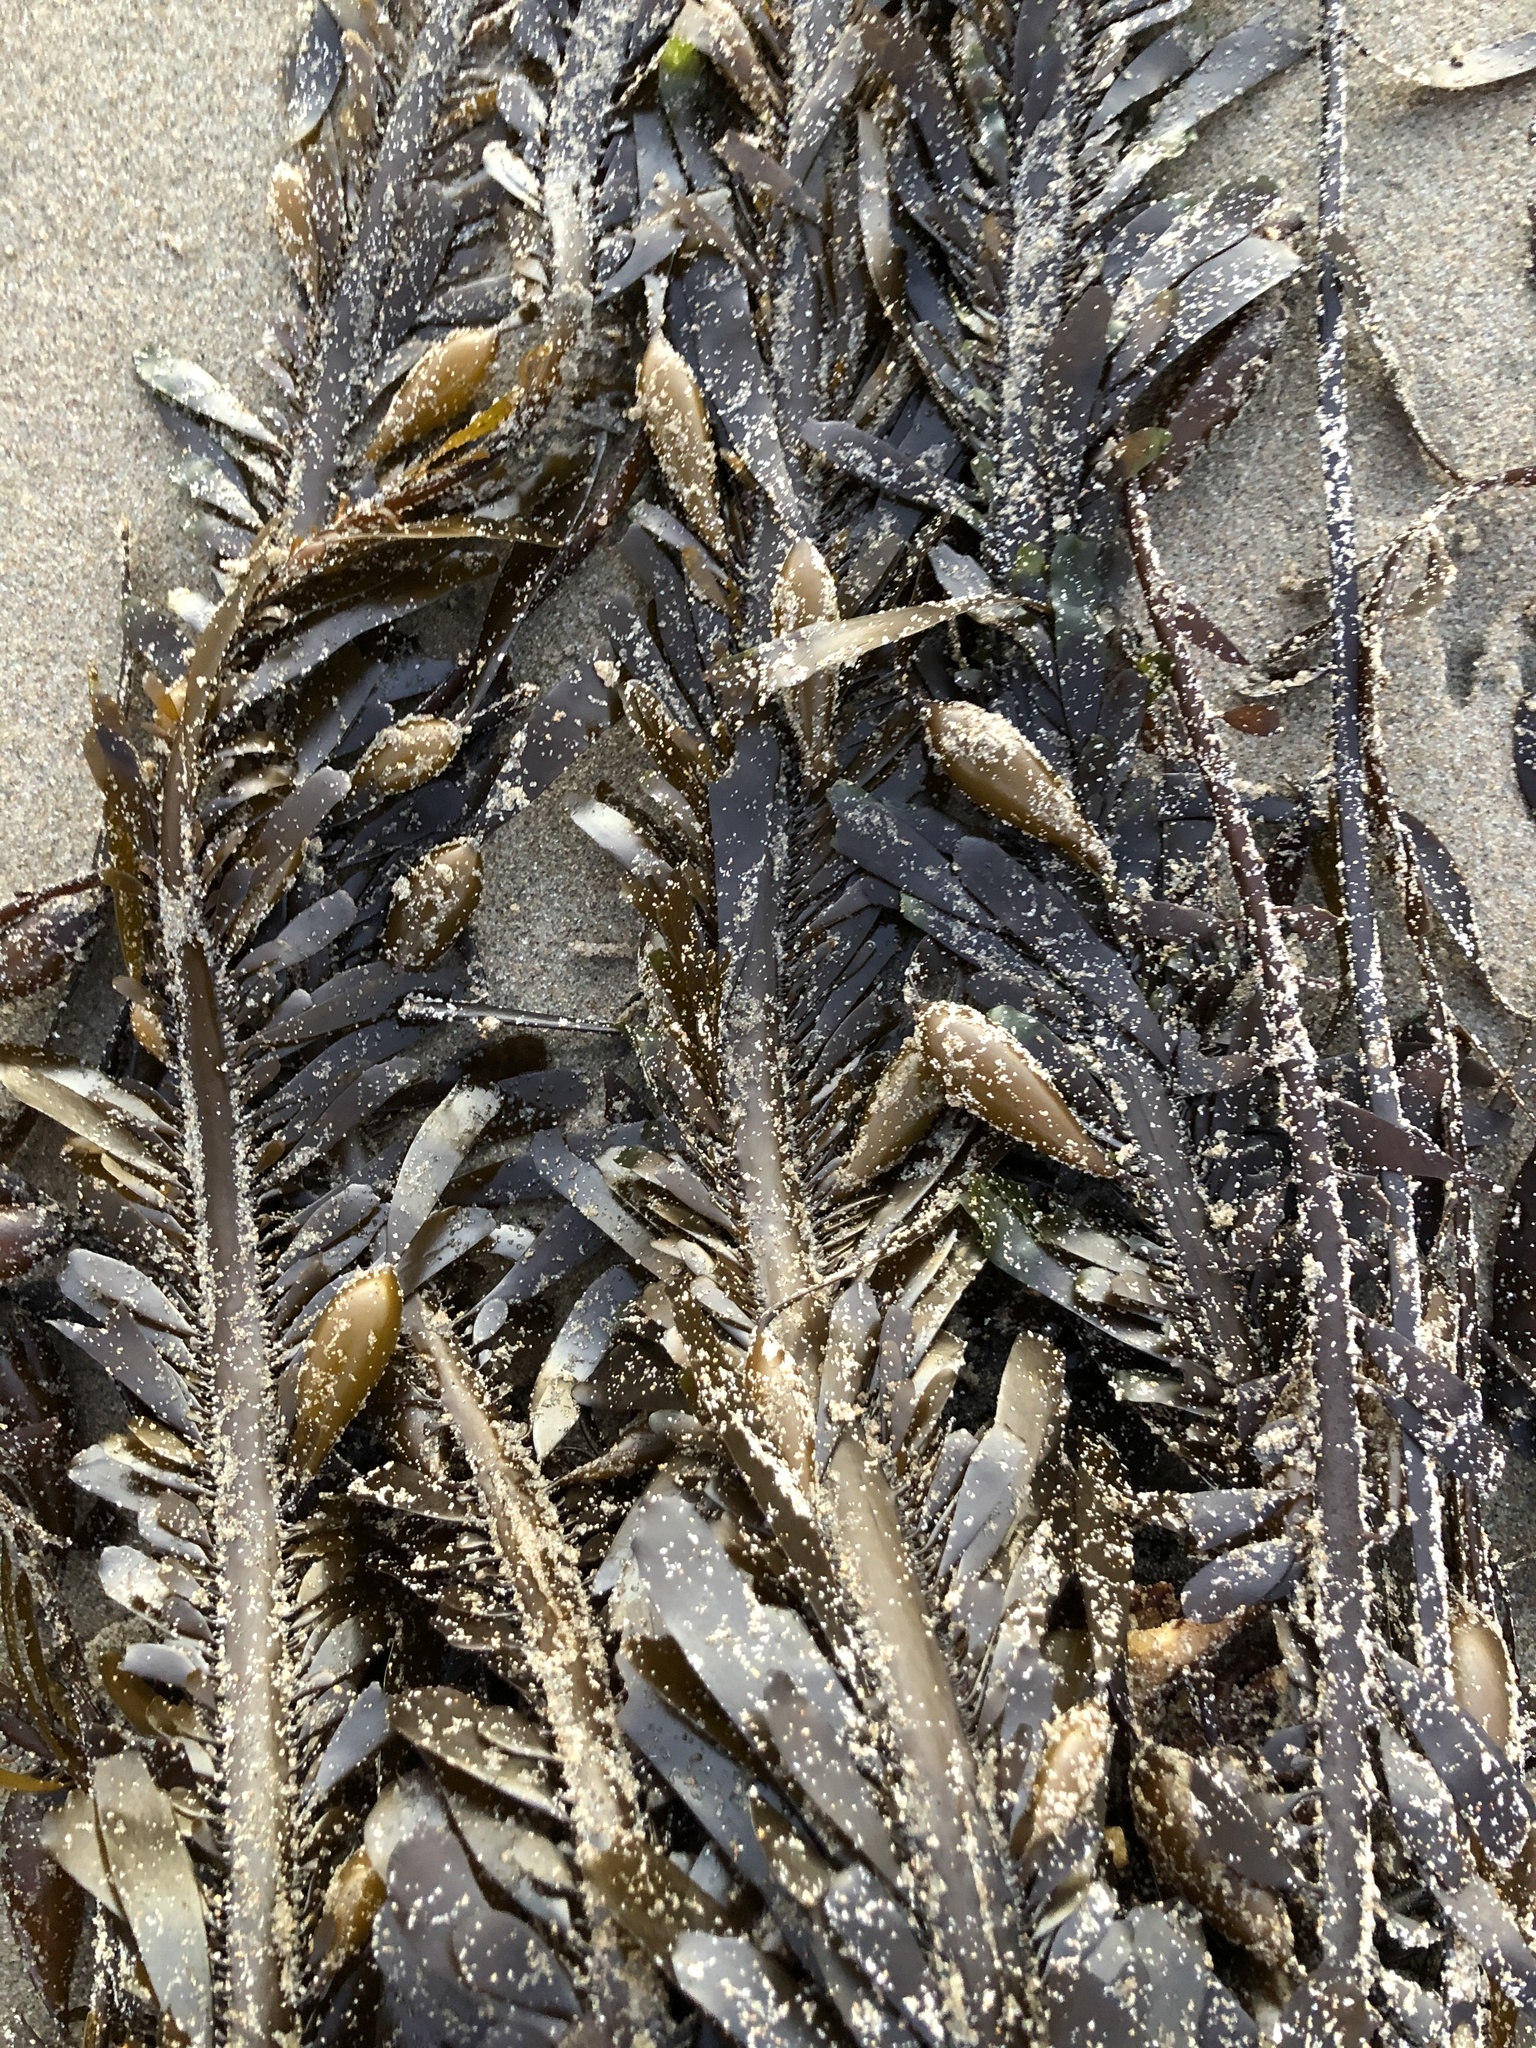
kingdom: Chromista
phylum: Ochrophyta
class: Phaeophyceae
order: Laminariales
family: Lessoniaceae
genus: Egregia
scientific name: Egregia menziesii
